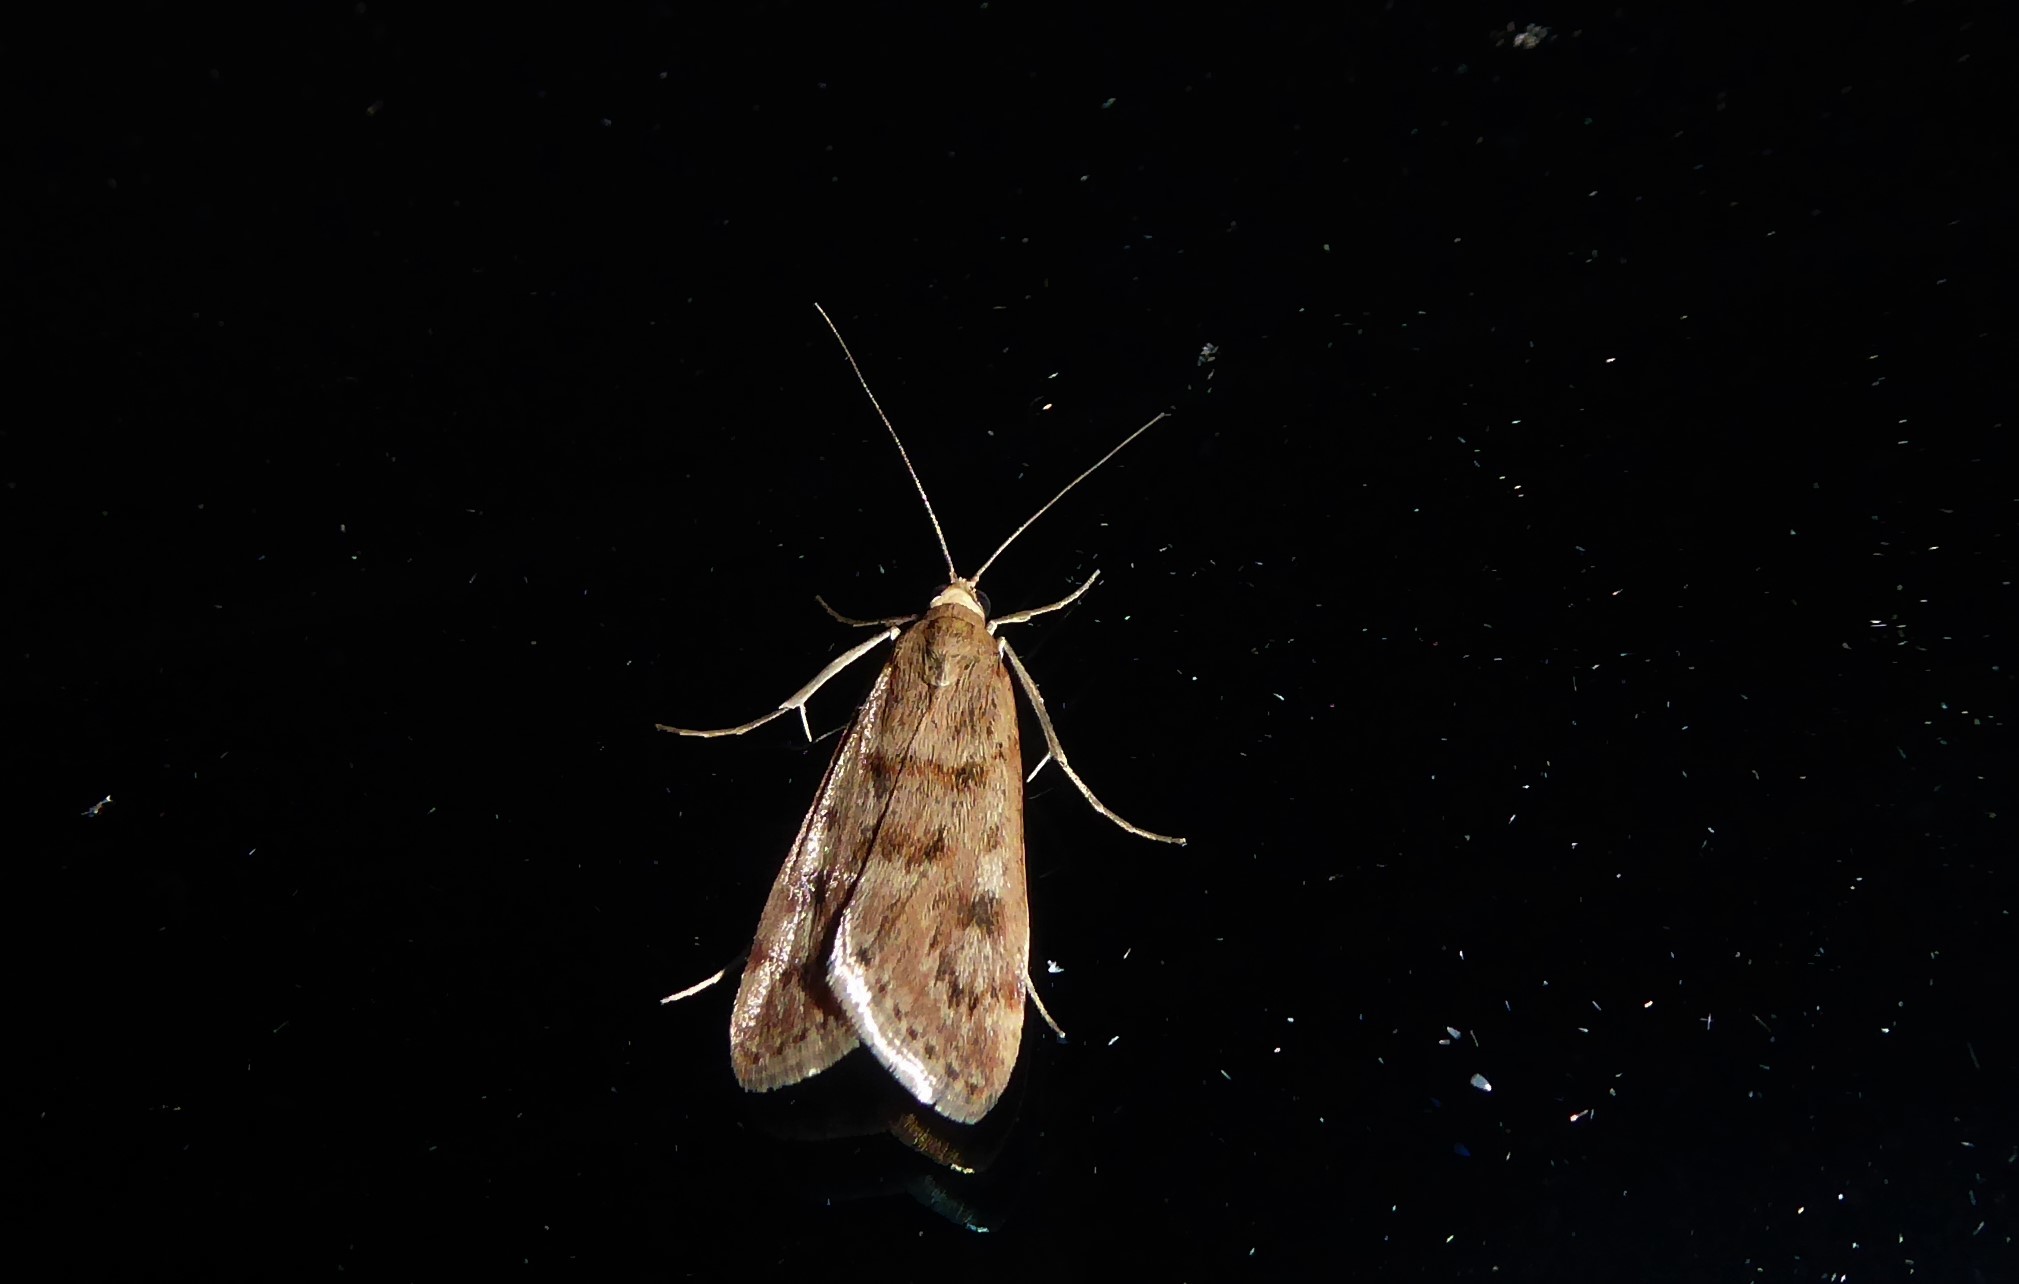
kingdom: Animalia
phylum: Arthropoda
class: Insecta
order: Lepidoptera
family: Crambidae
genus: Achyra
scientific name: Achyra affinitalis
